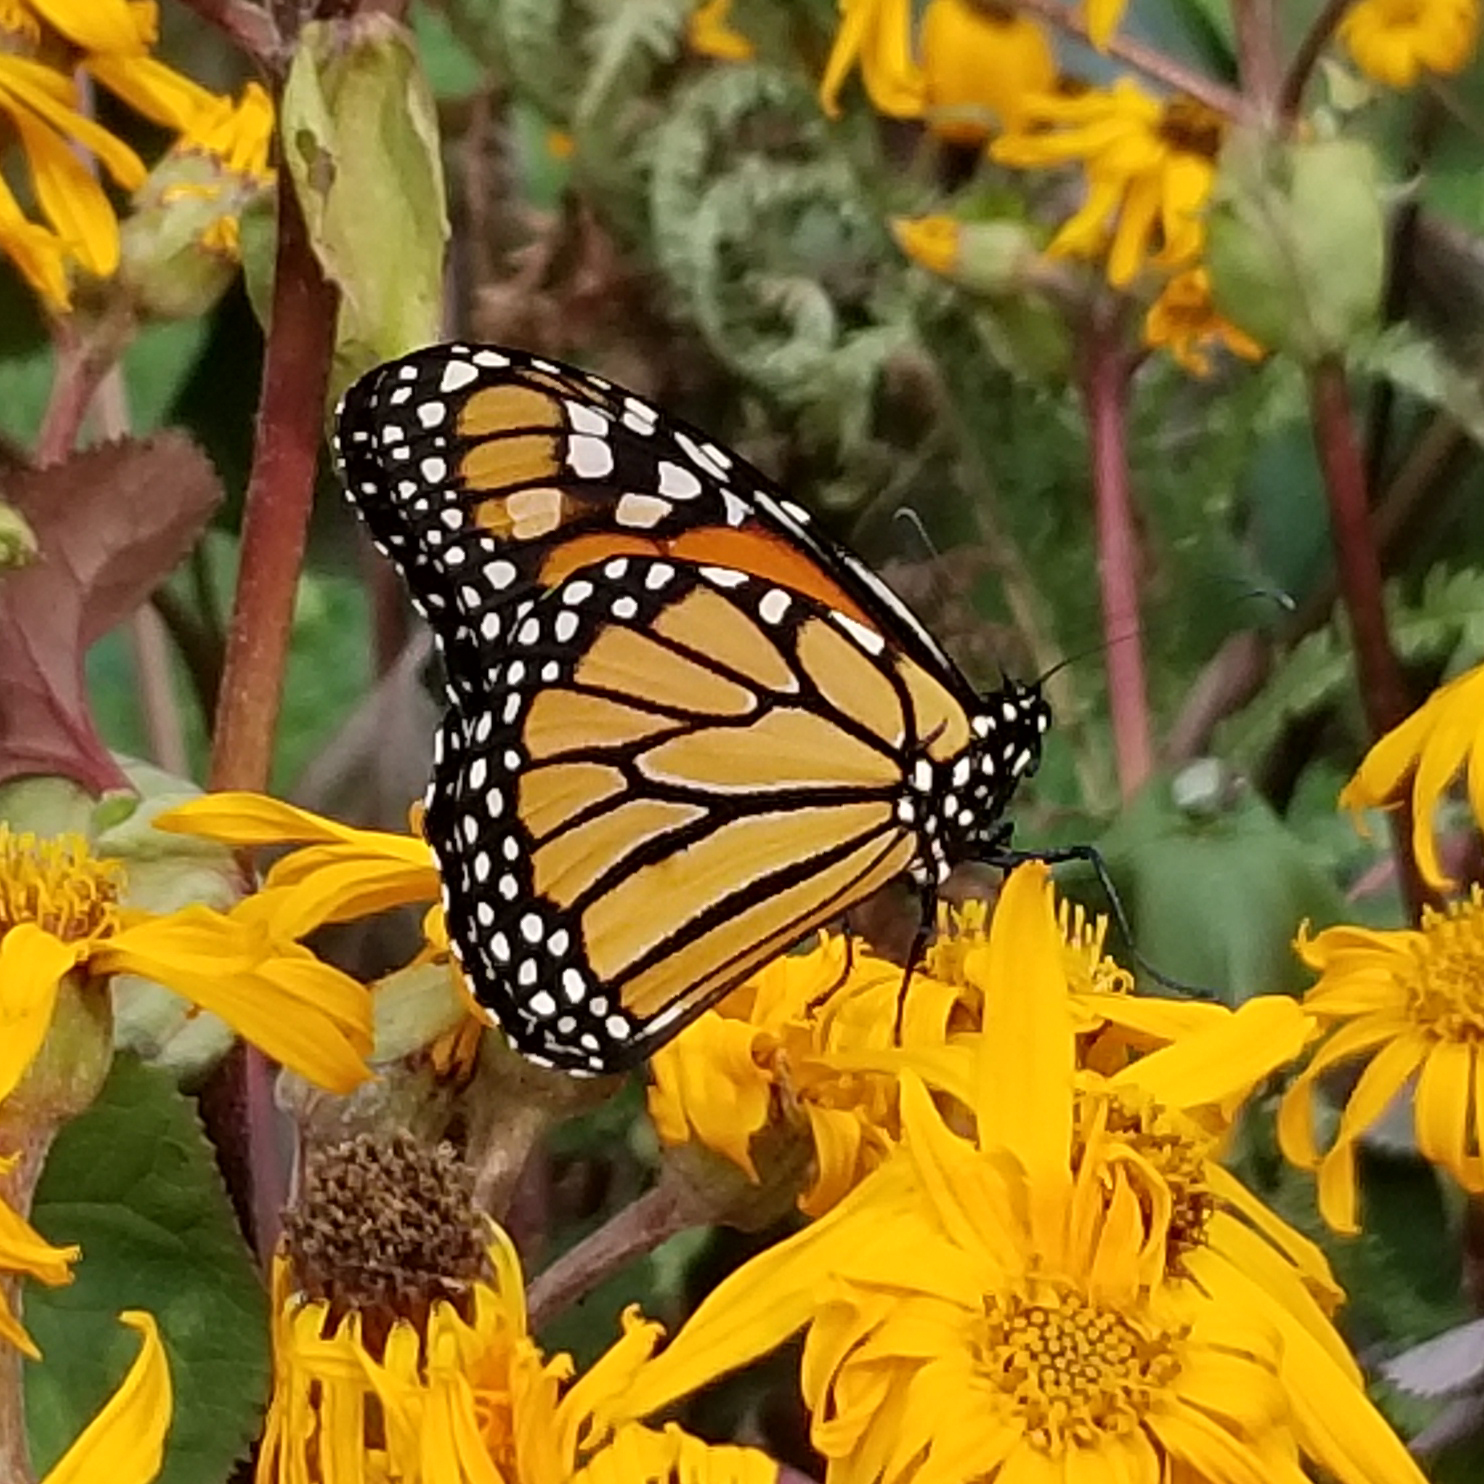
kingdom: Animalia
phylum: Arthropoda
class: Insecta
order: Lepidoptera
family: Nymphalidae
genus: Danaus
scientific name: Danaus plexippus
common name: Monarch
